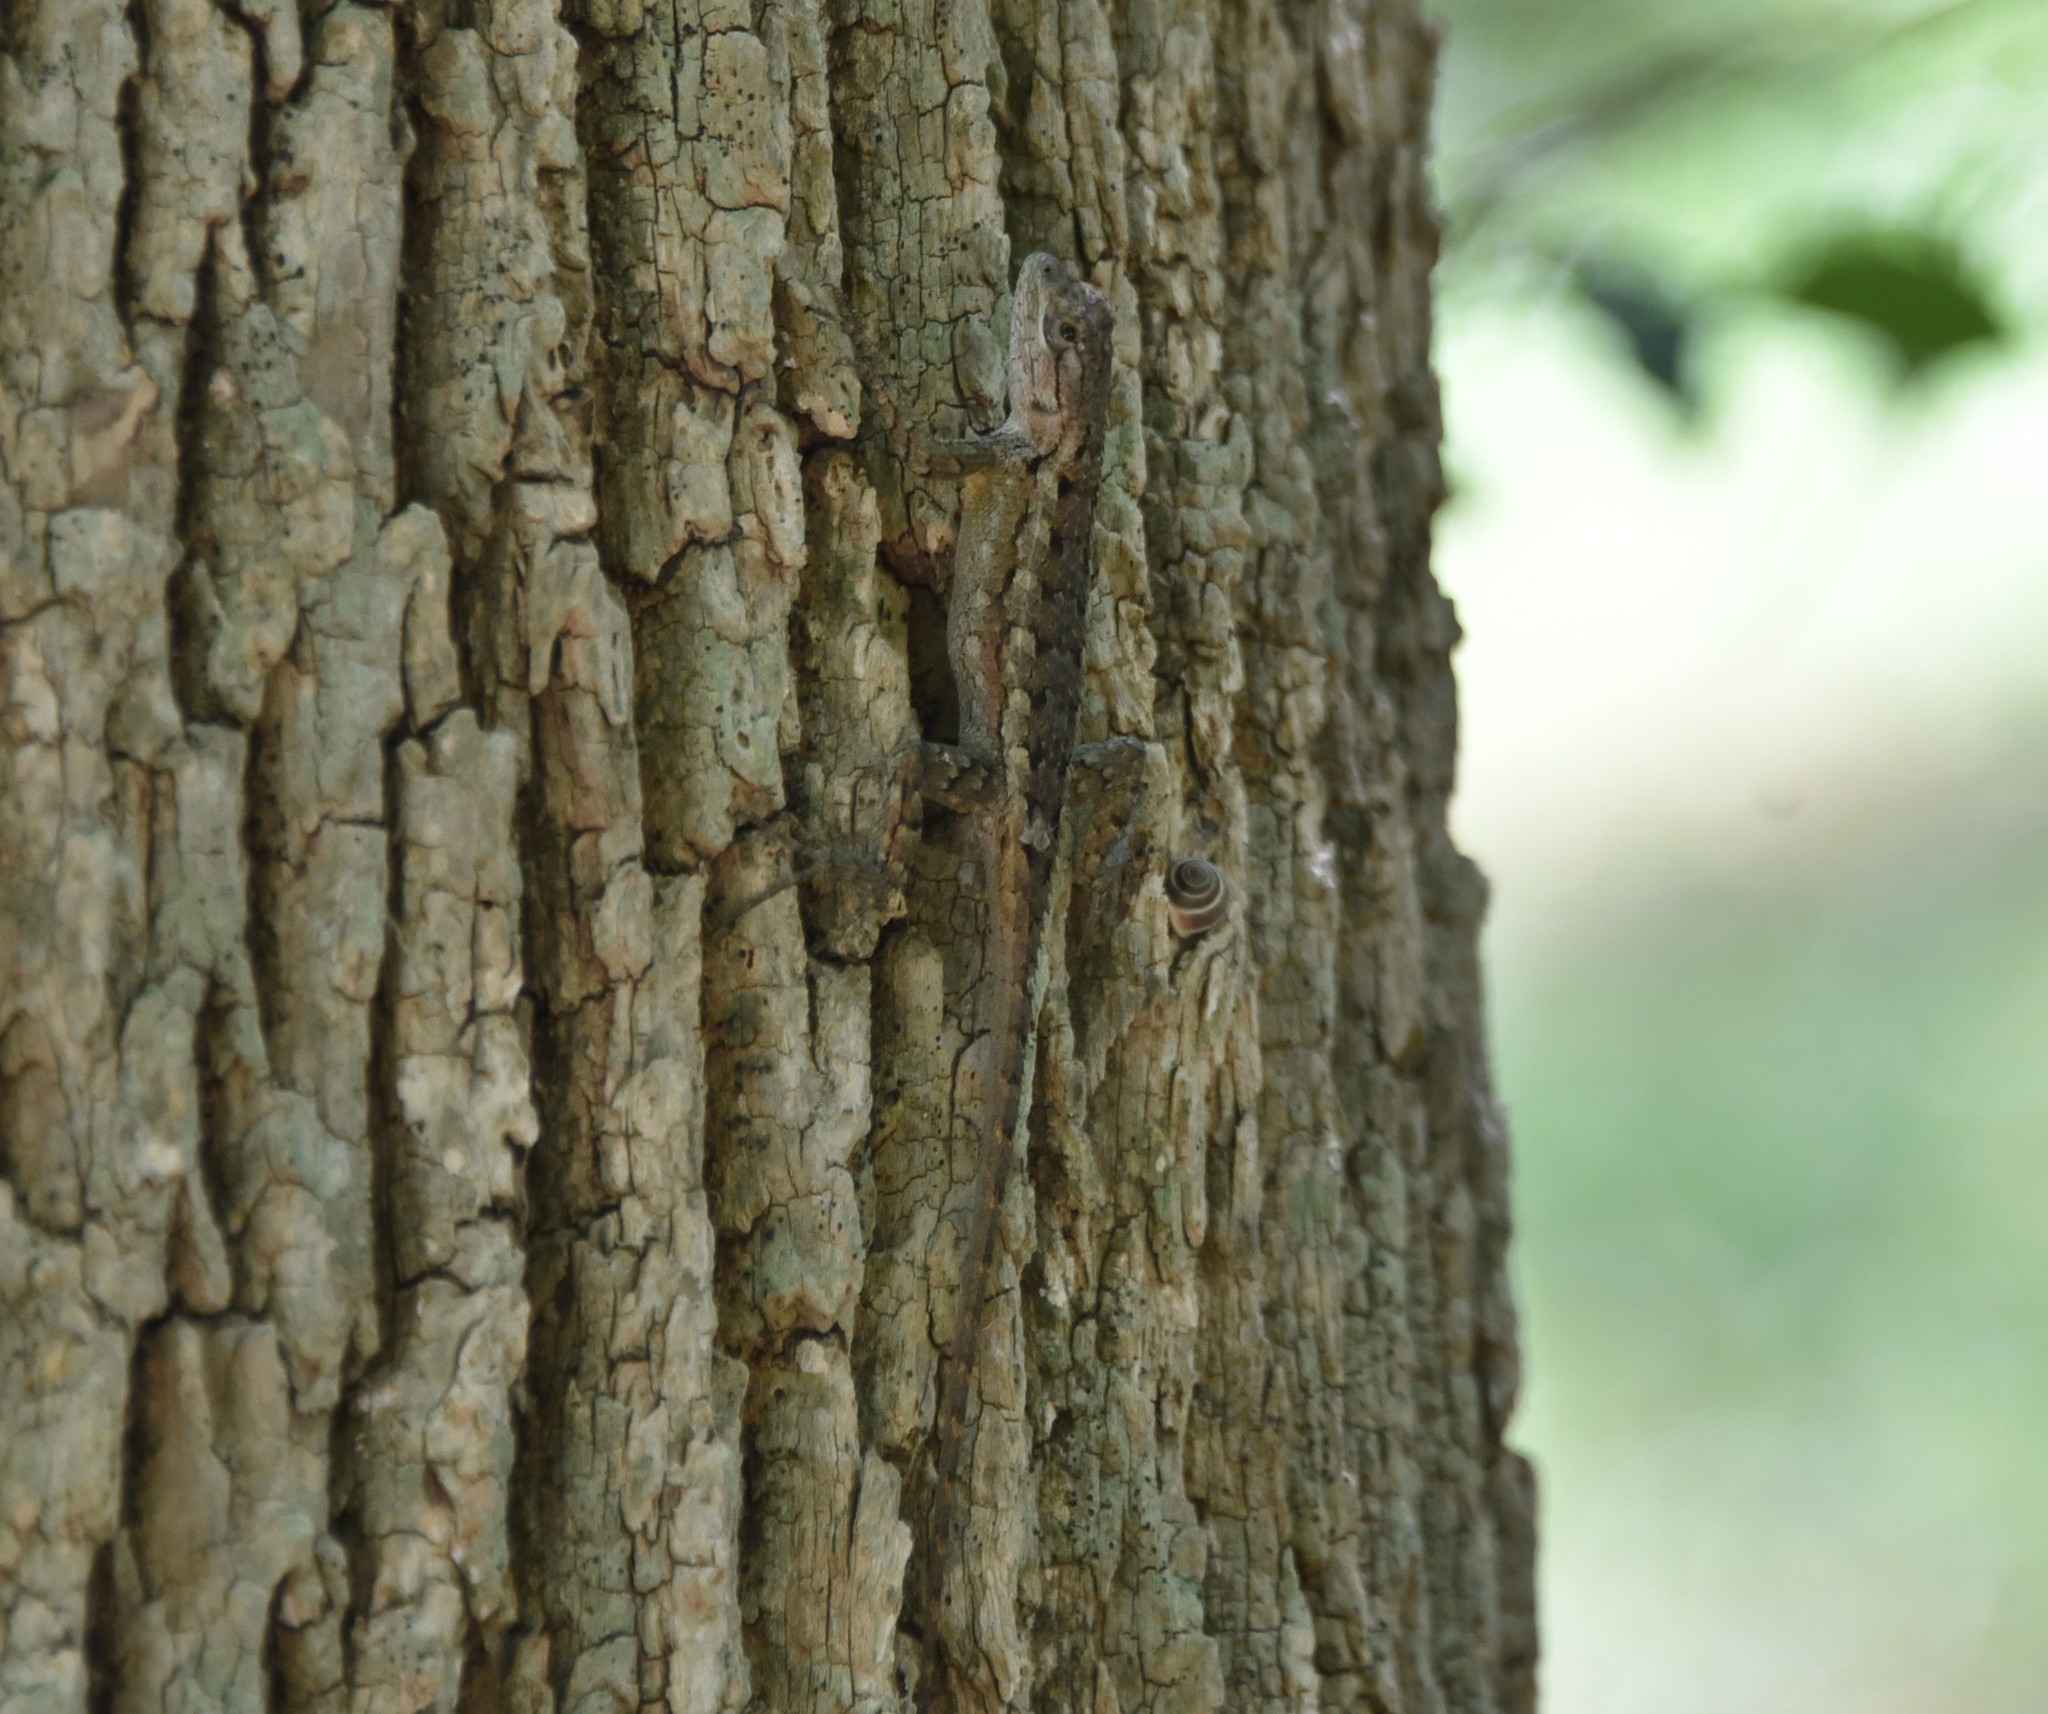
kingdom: Animalia
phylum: Chordata
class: Squamata
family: Phrynosomatidae
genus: Sceloporus
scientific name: Sceloporus olivaceus
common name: Texas spiny lizard
